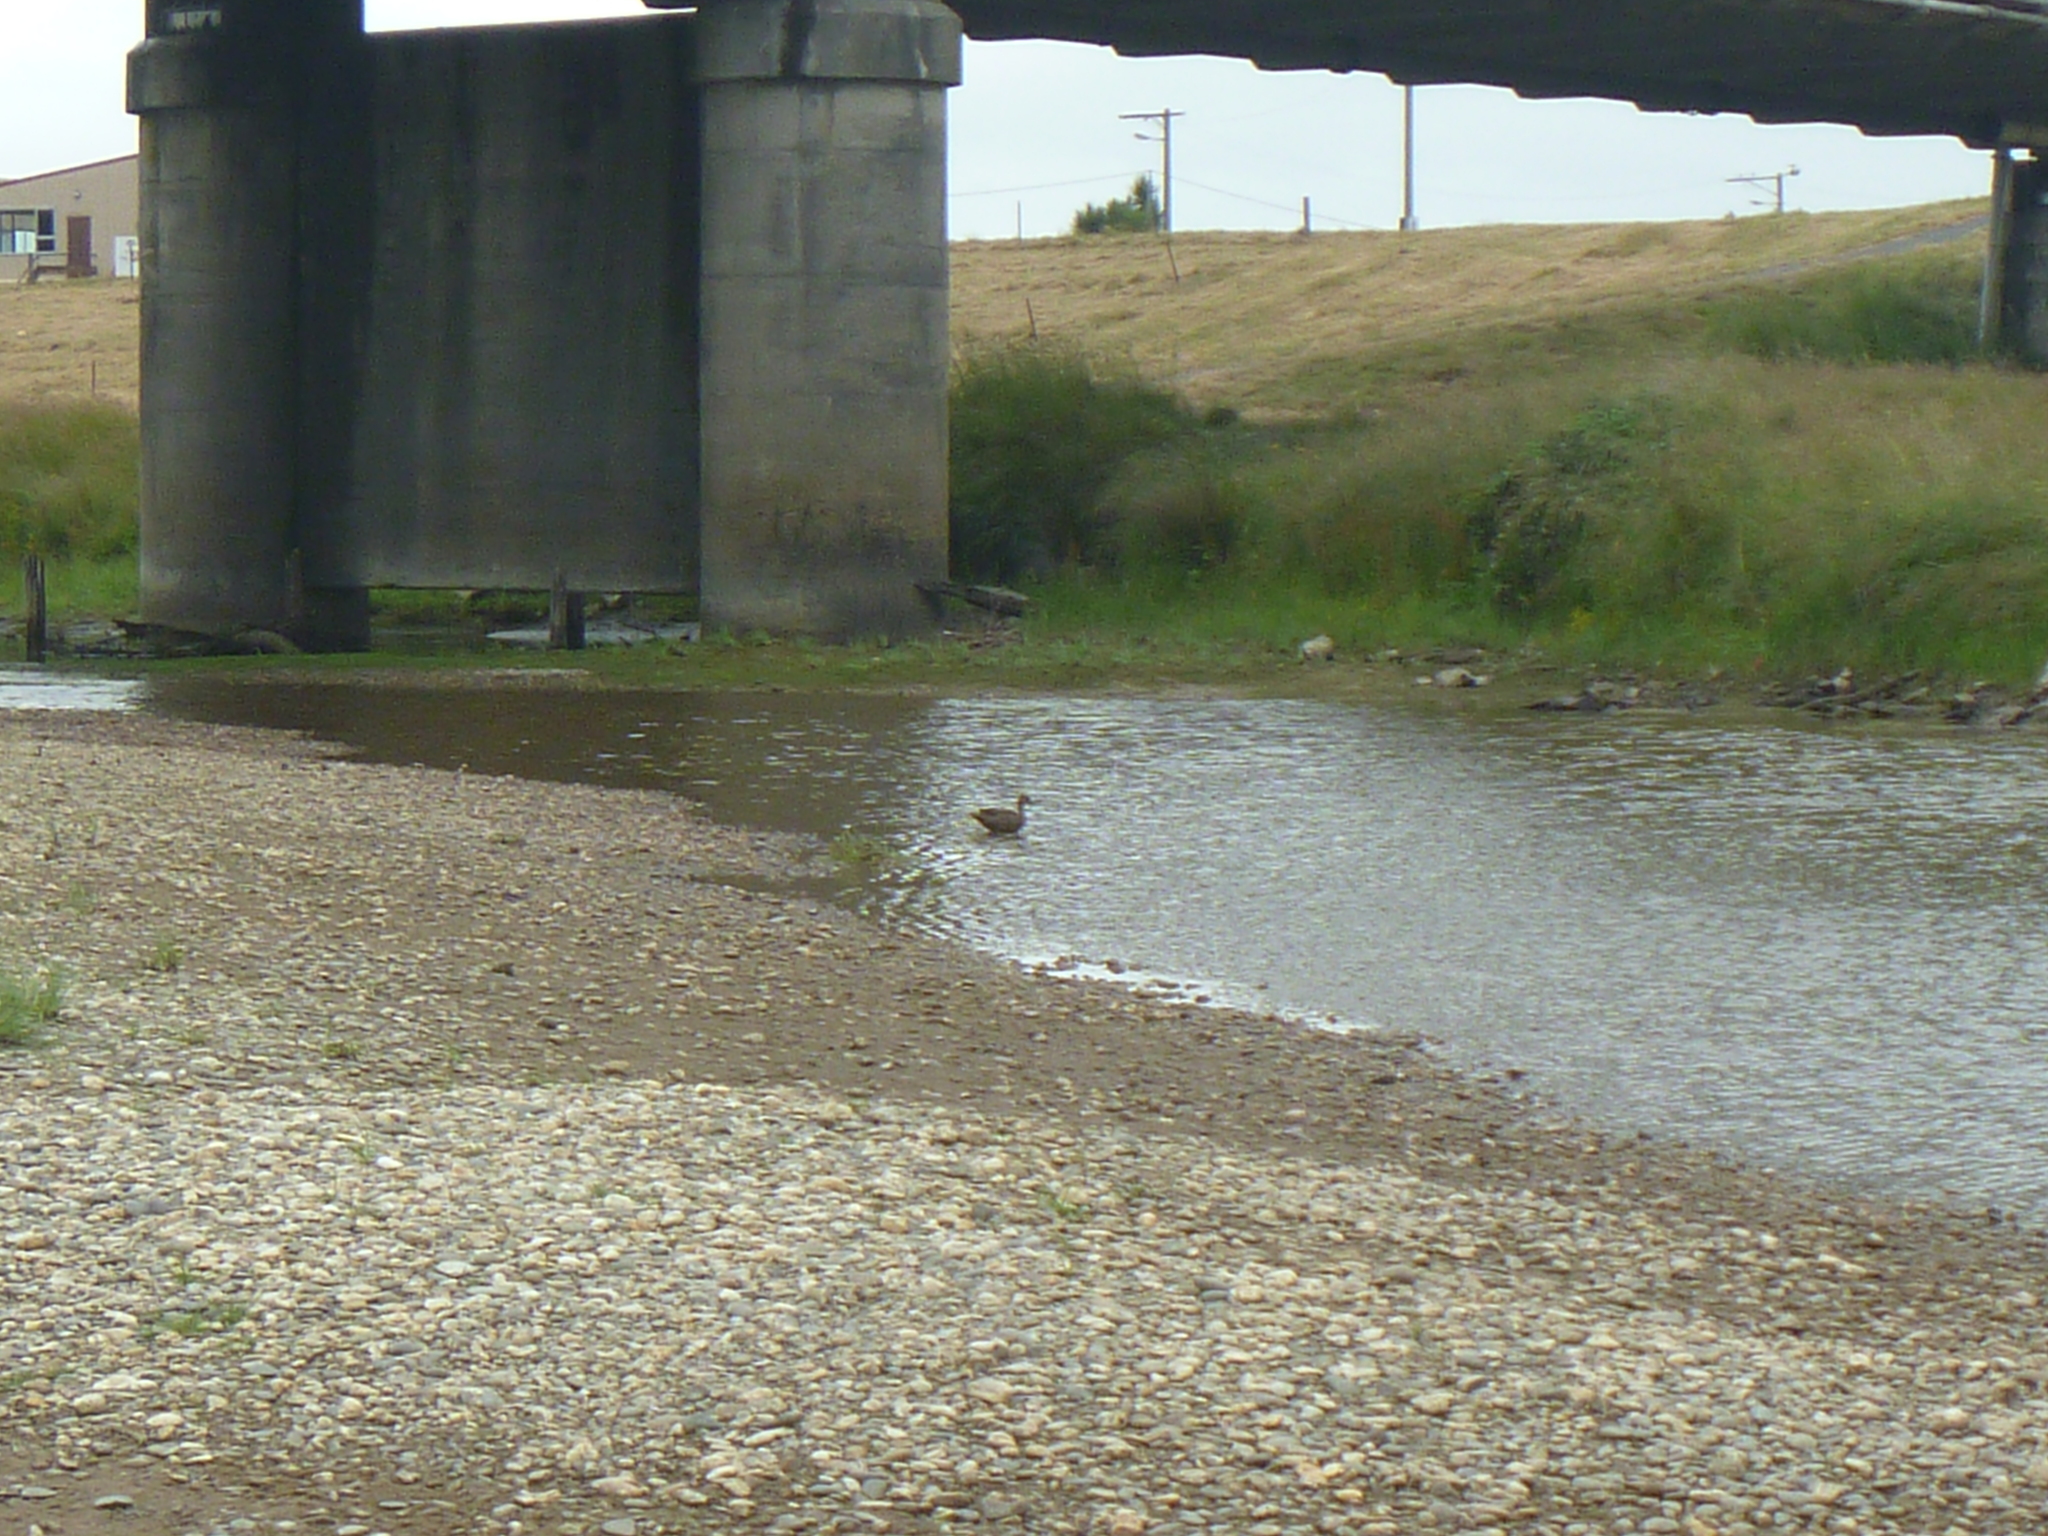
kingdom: Animalia
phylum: Chordata
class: Aves
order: Anseriformes
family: Anatidae
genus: Anas
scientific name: Anas platyrhynchos
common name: Mallard
